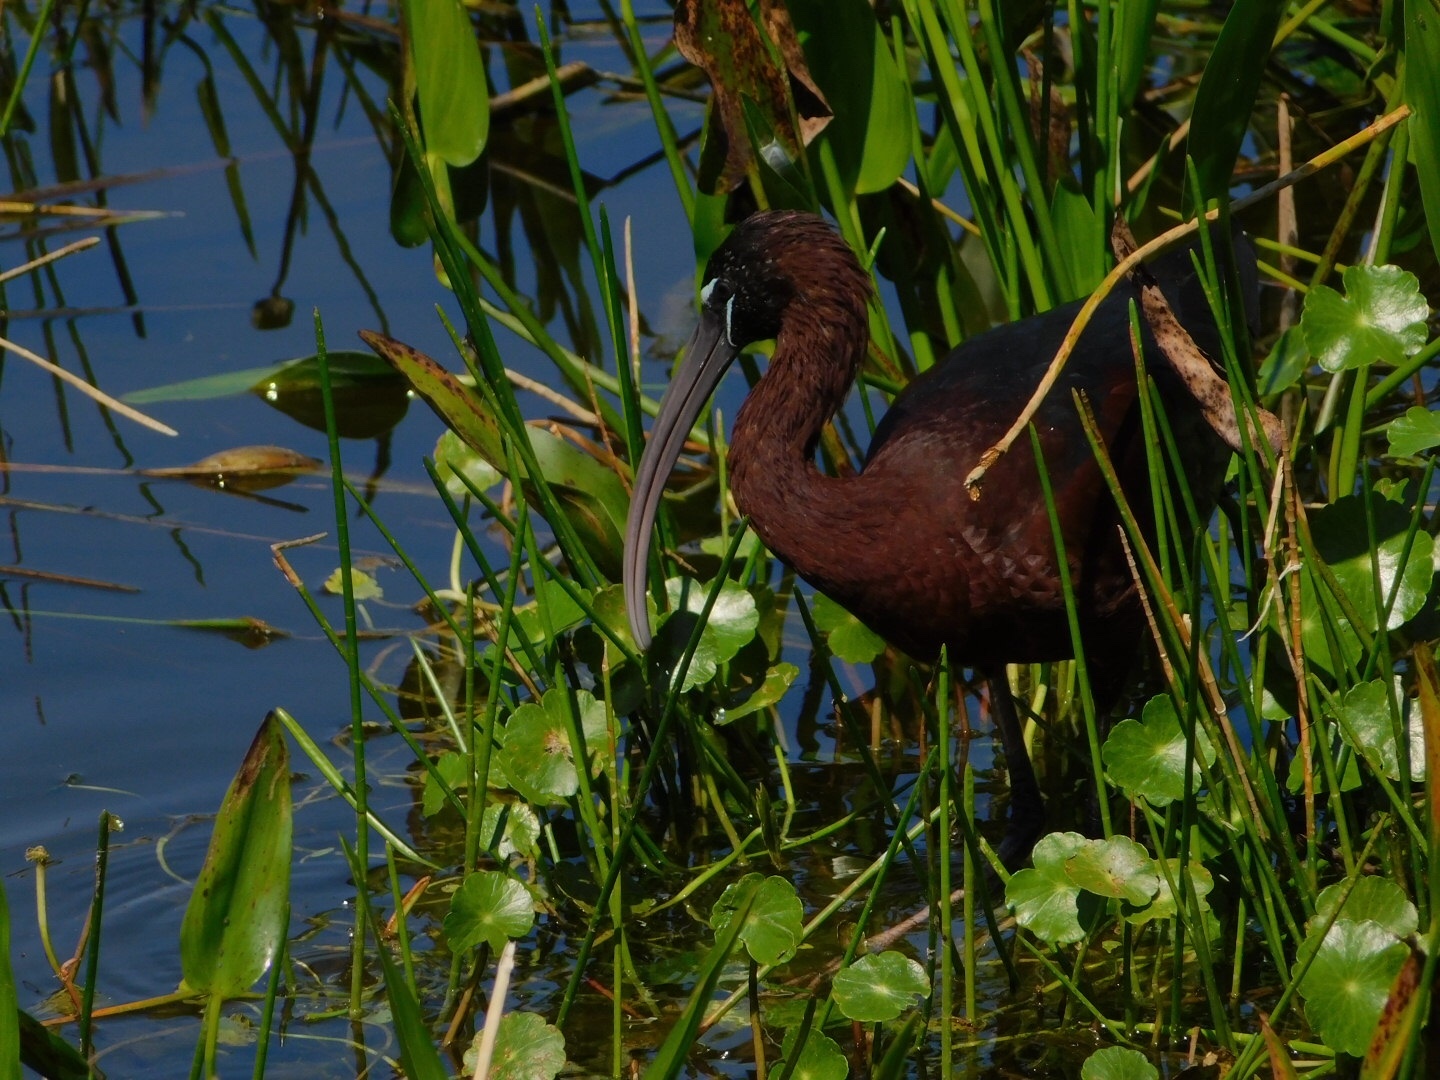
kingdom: Animalia
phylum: Chordata
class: Aves
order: Pelecaniformes
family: Threskiornithidae
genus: Plegadis
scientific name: Plegadis falcinellus
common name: Glossy ibis
